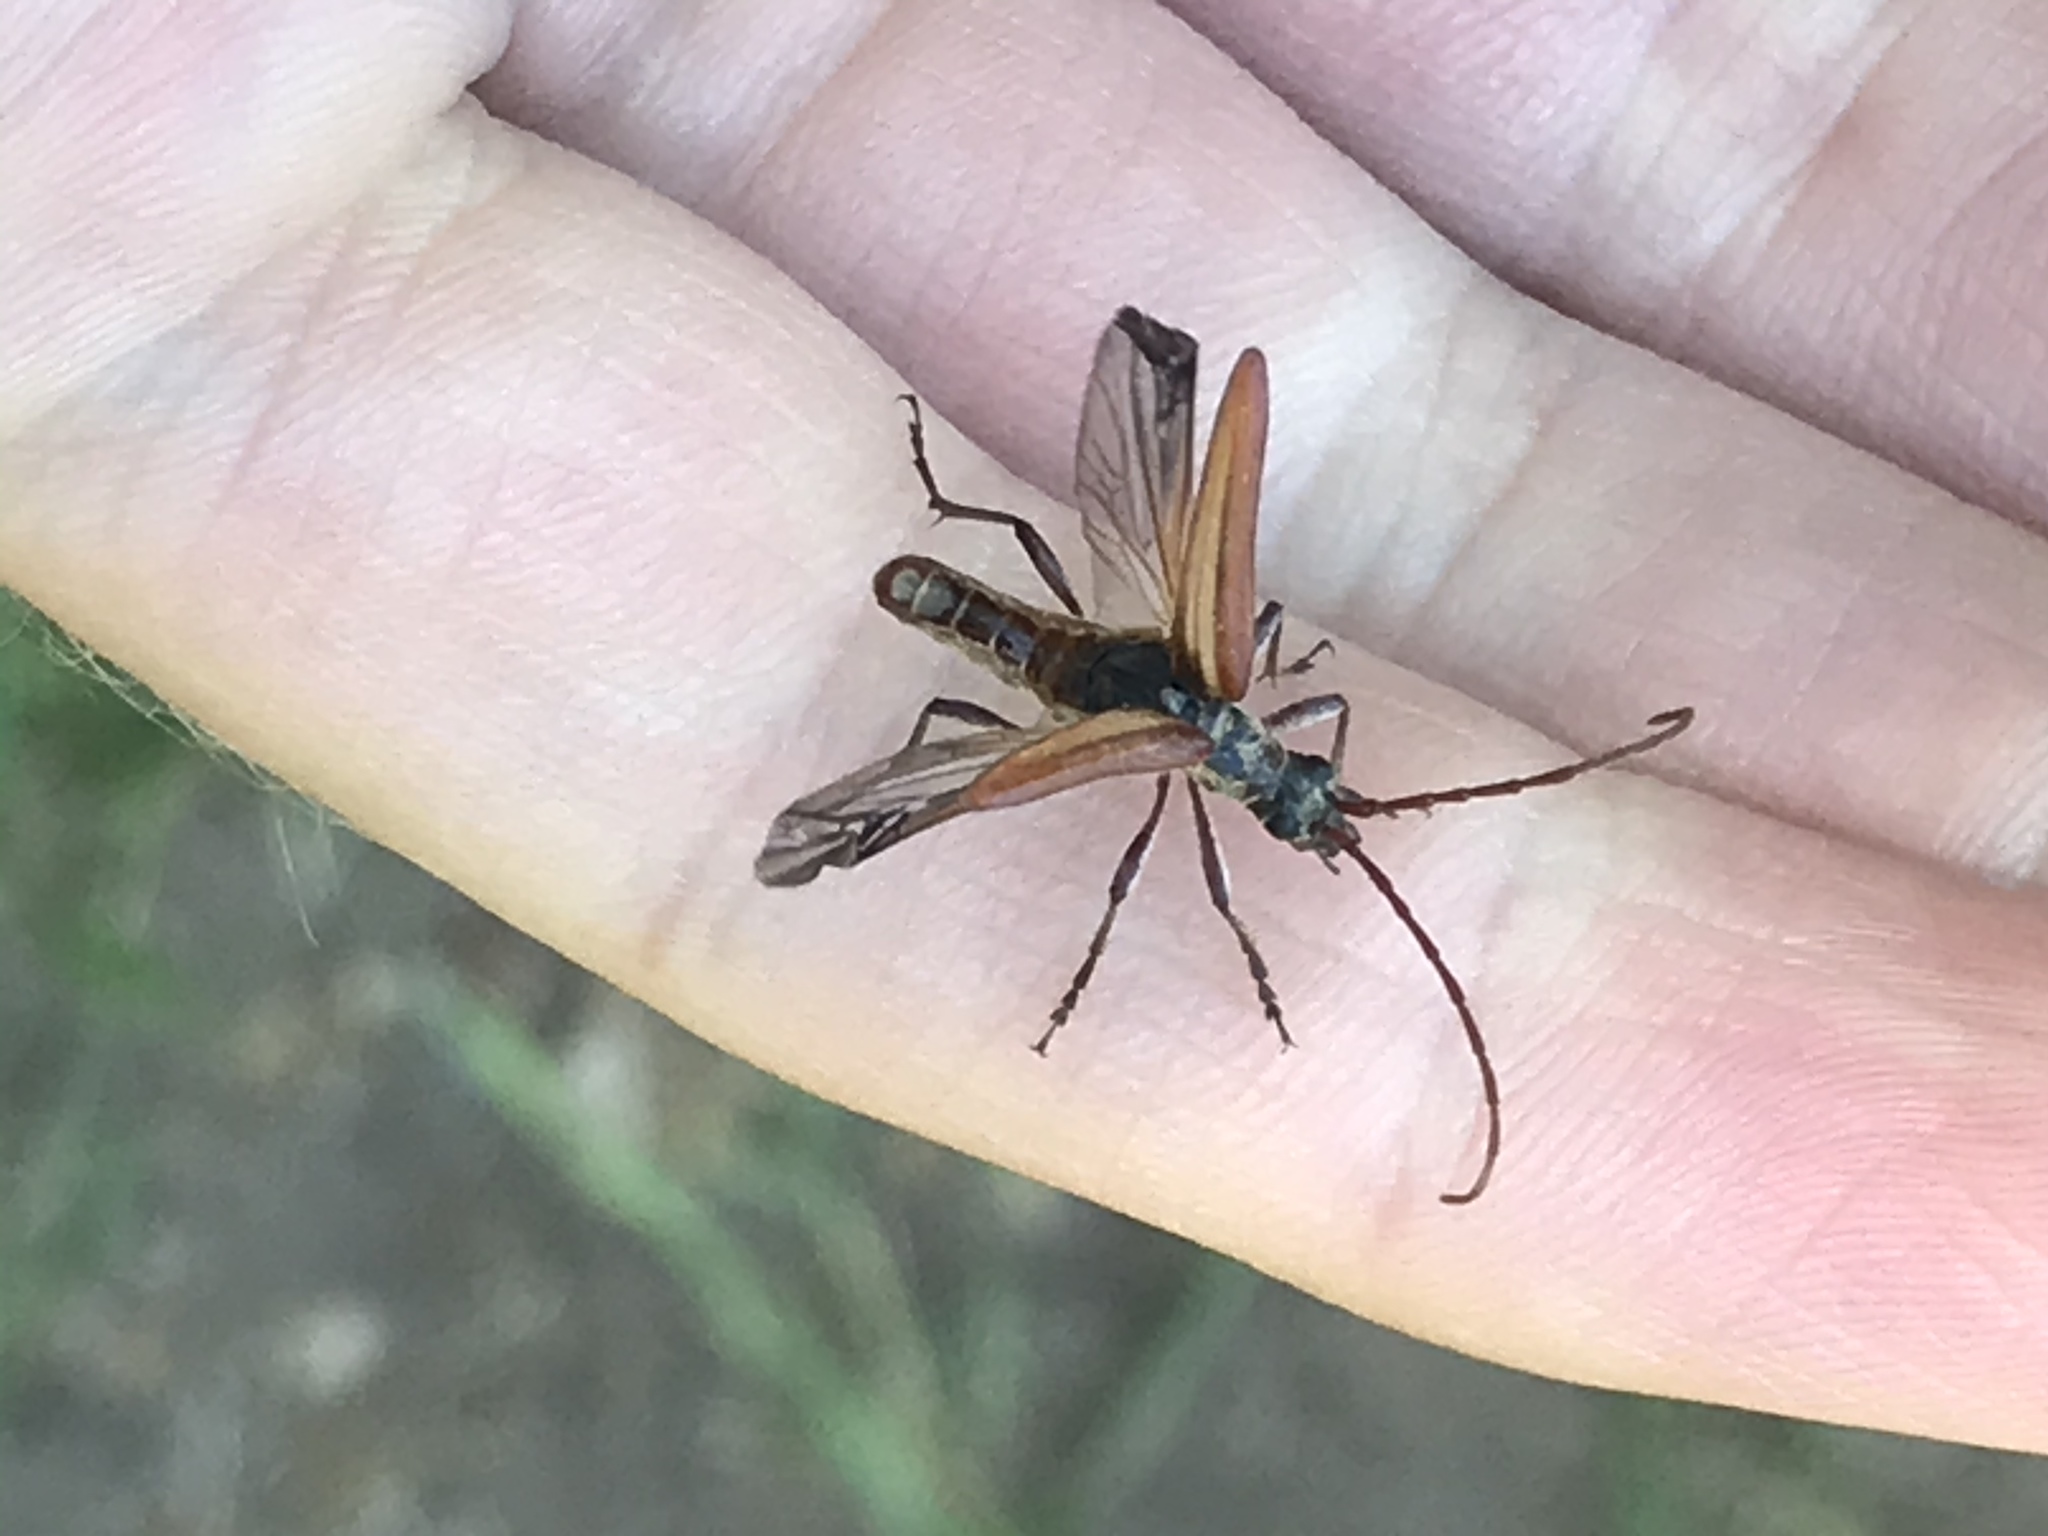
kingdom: Animalia
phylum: Arthropoda
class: Insecta
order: Coleoptera
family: Cerambycidae
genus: Stenocorus
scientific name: Stenocorus copei
